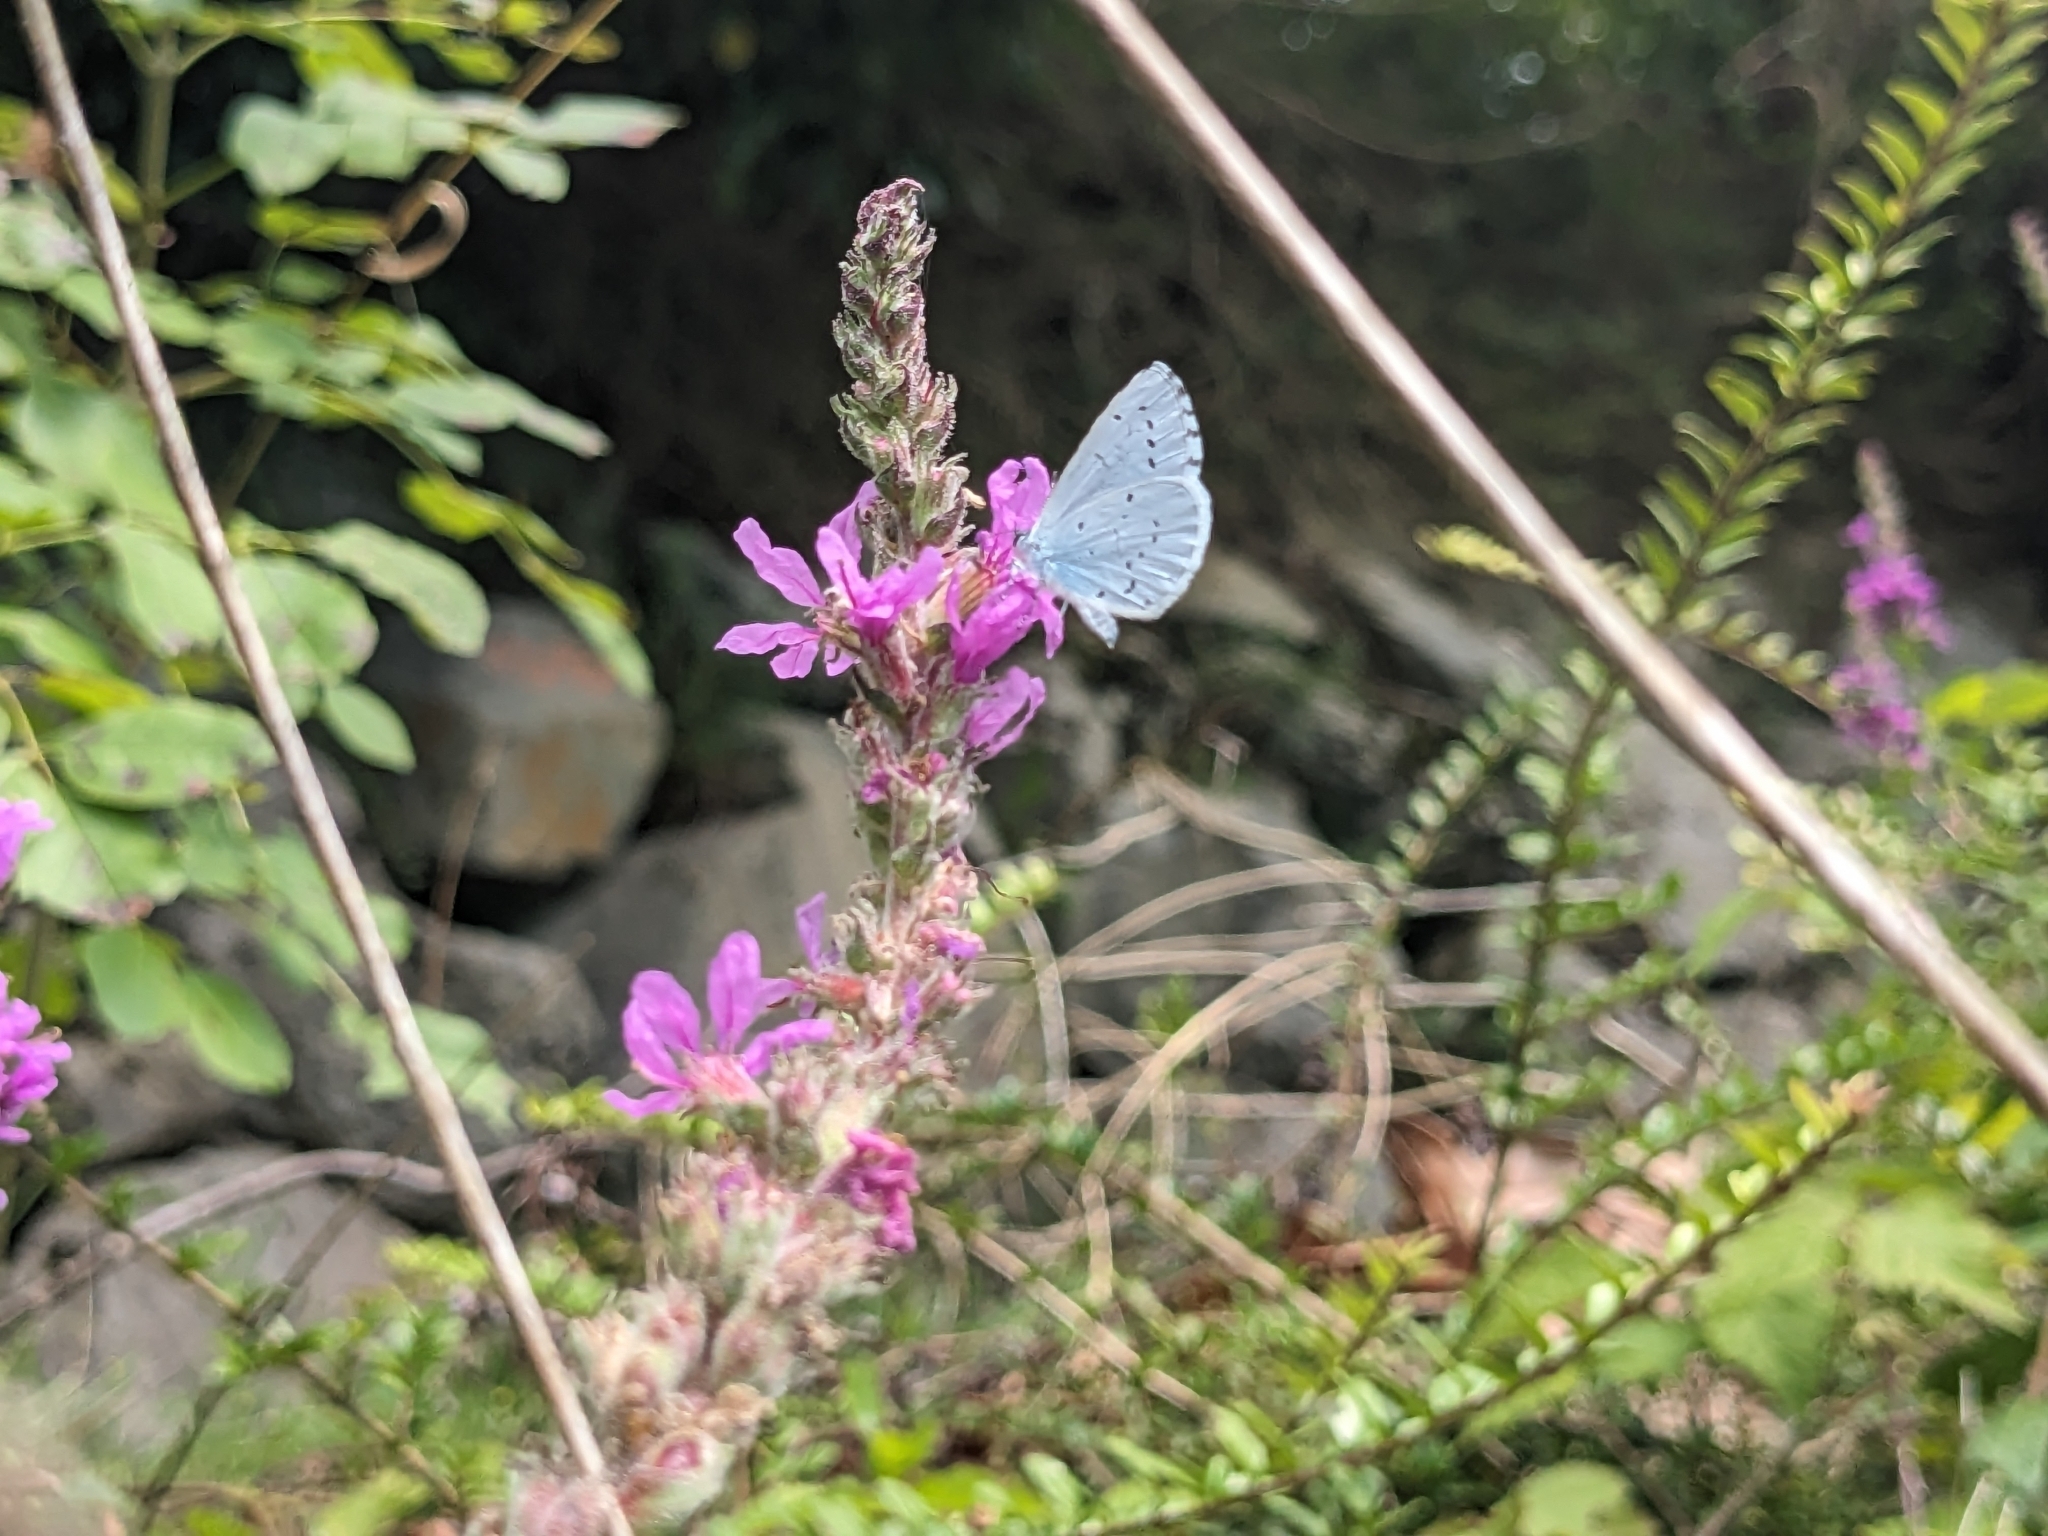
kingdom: Animalia
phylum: Arthropoda
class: Insecta
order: Lepidoptera
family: Lycaenidae
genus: Celastrina
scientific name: Celastrina argiolus
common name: Holly blue
